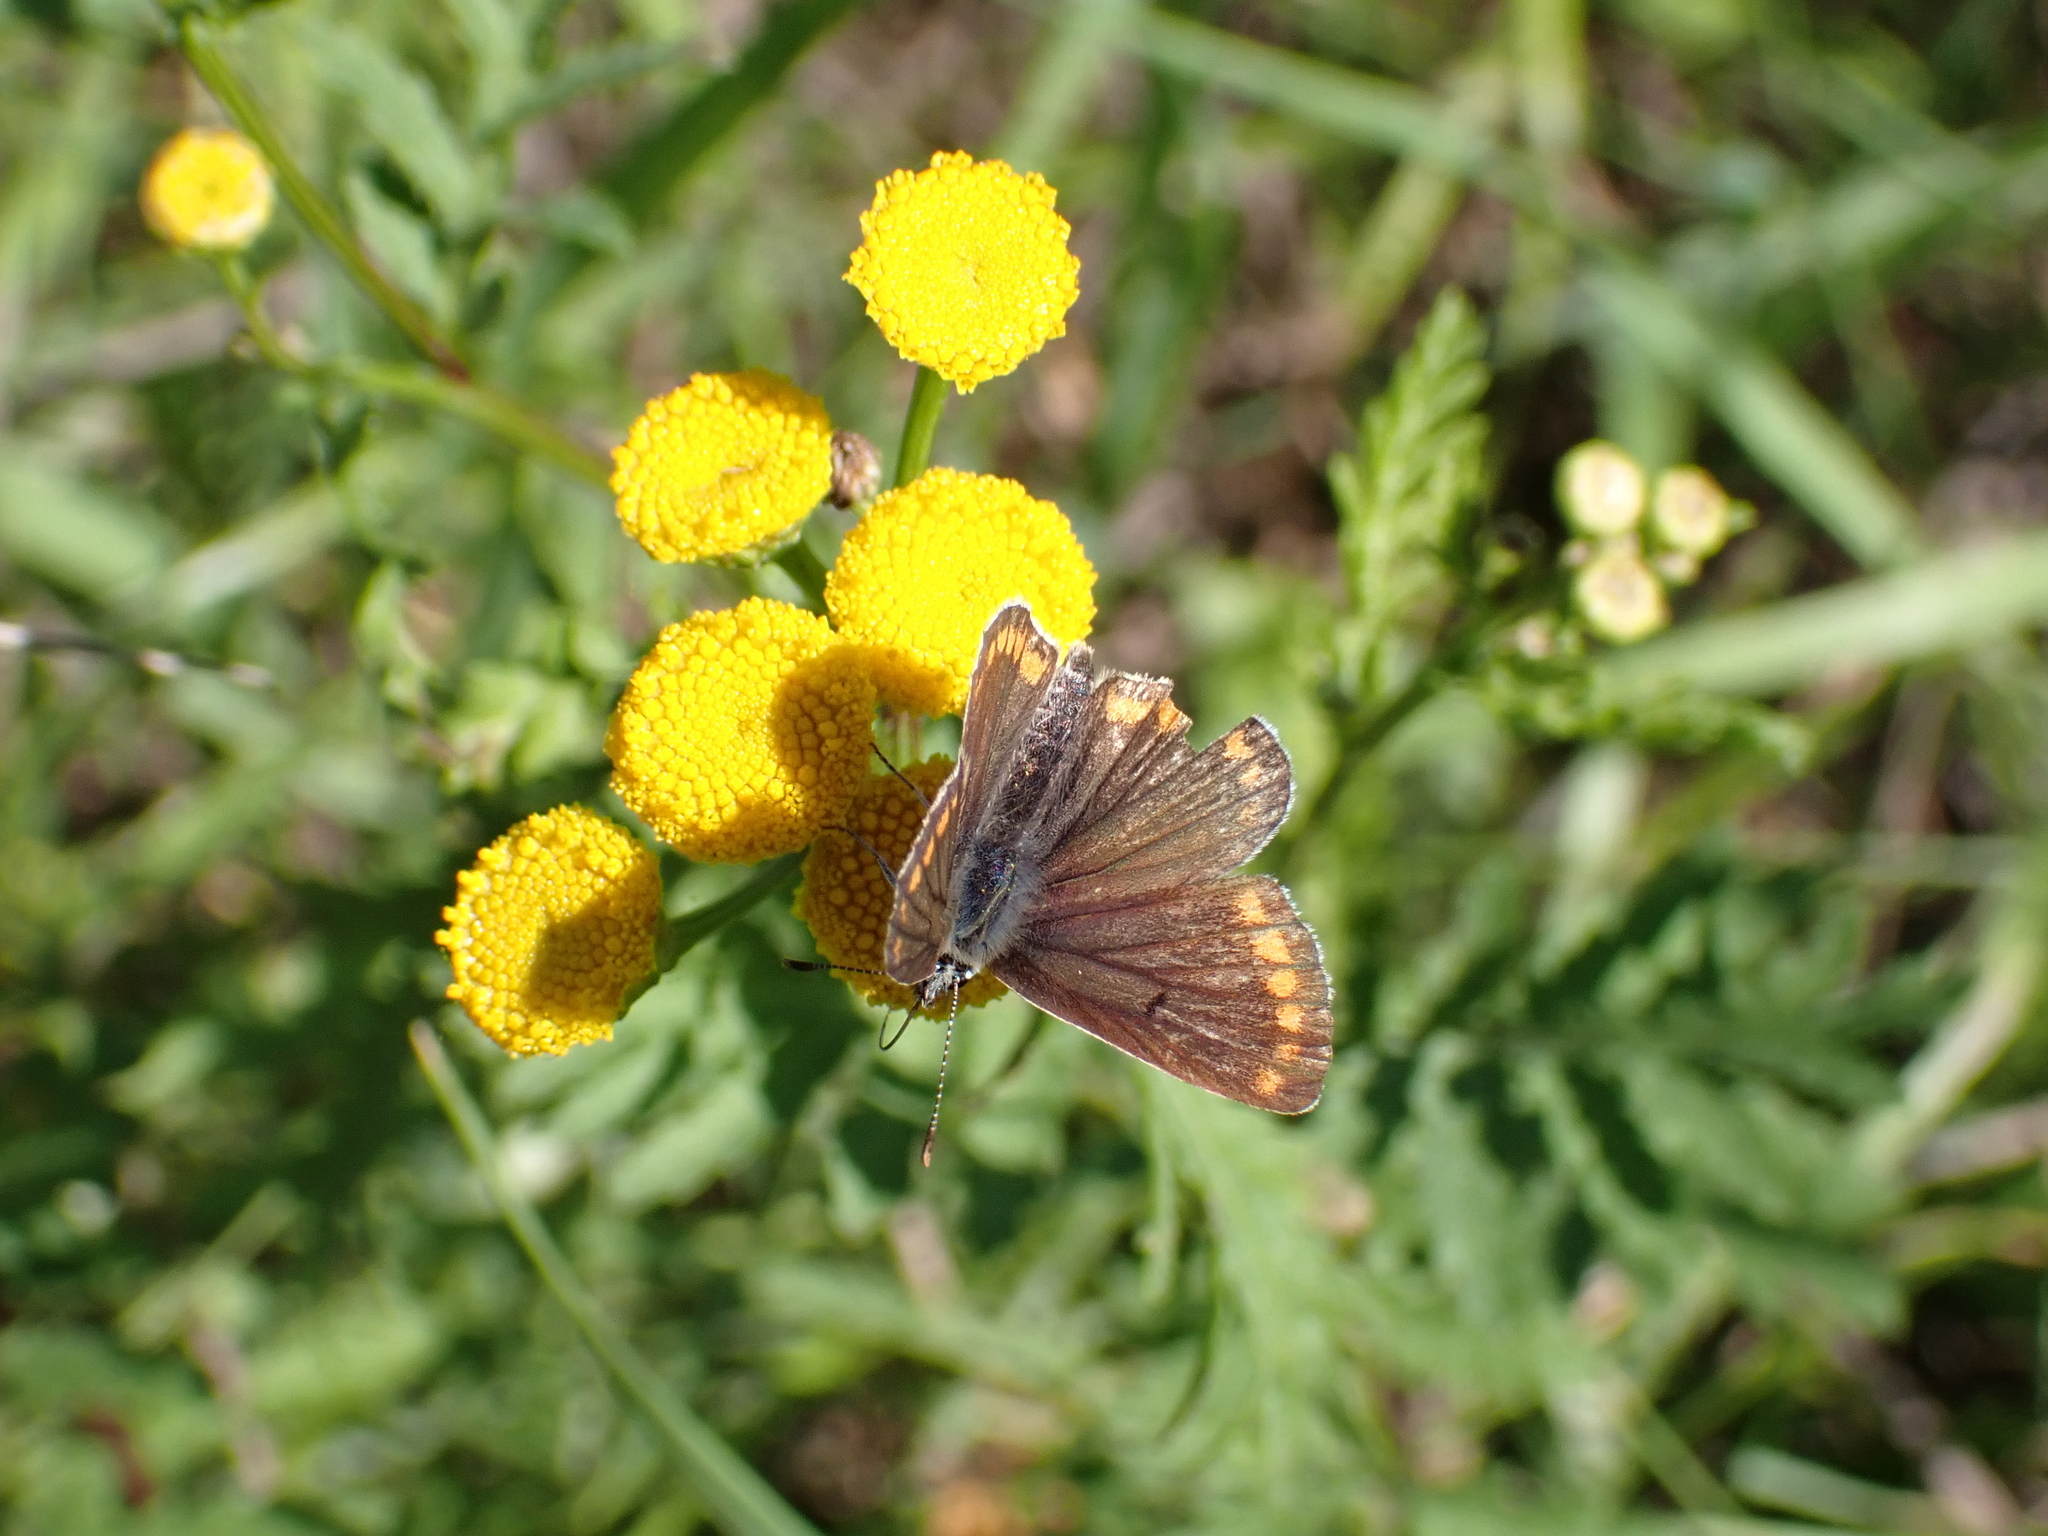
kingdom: Animalia
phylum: Arthropoda
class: Insecta
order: Lepidoptera
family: Lycaenidae
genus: Aricia
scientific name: Aricia agestis
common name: Brown argus
